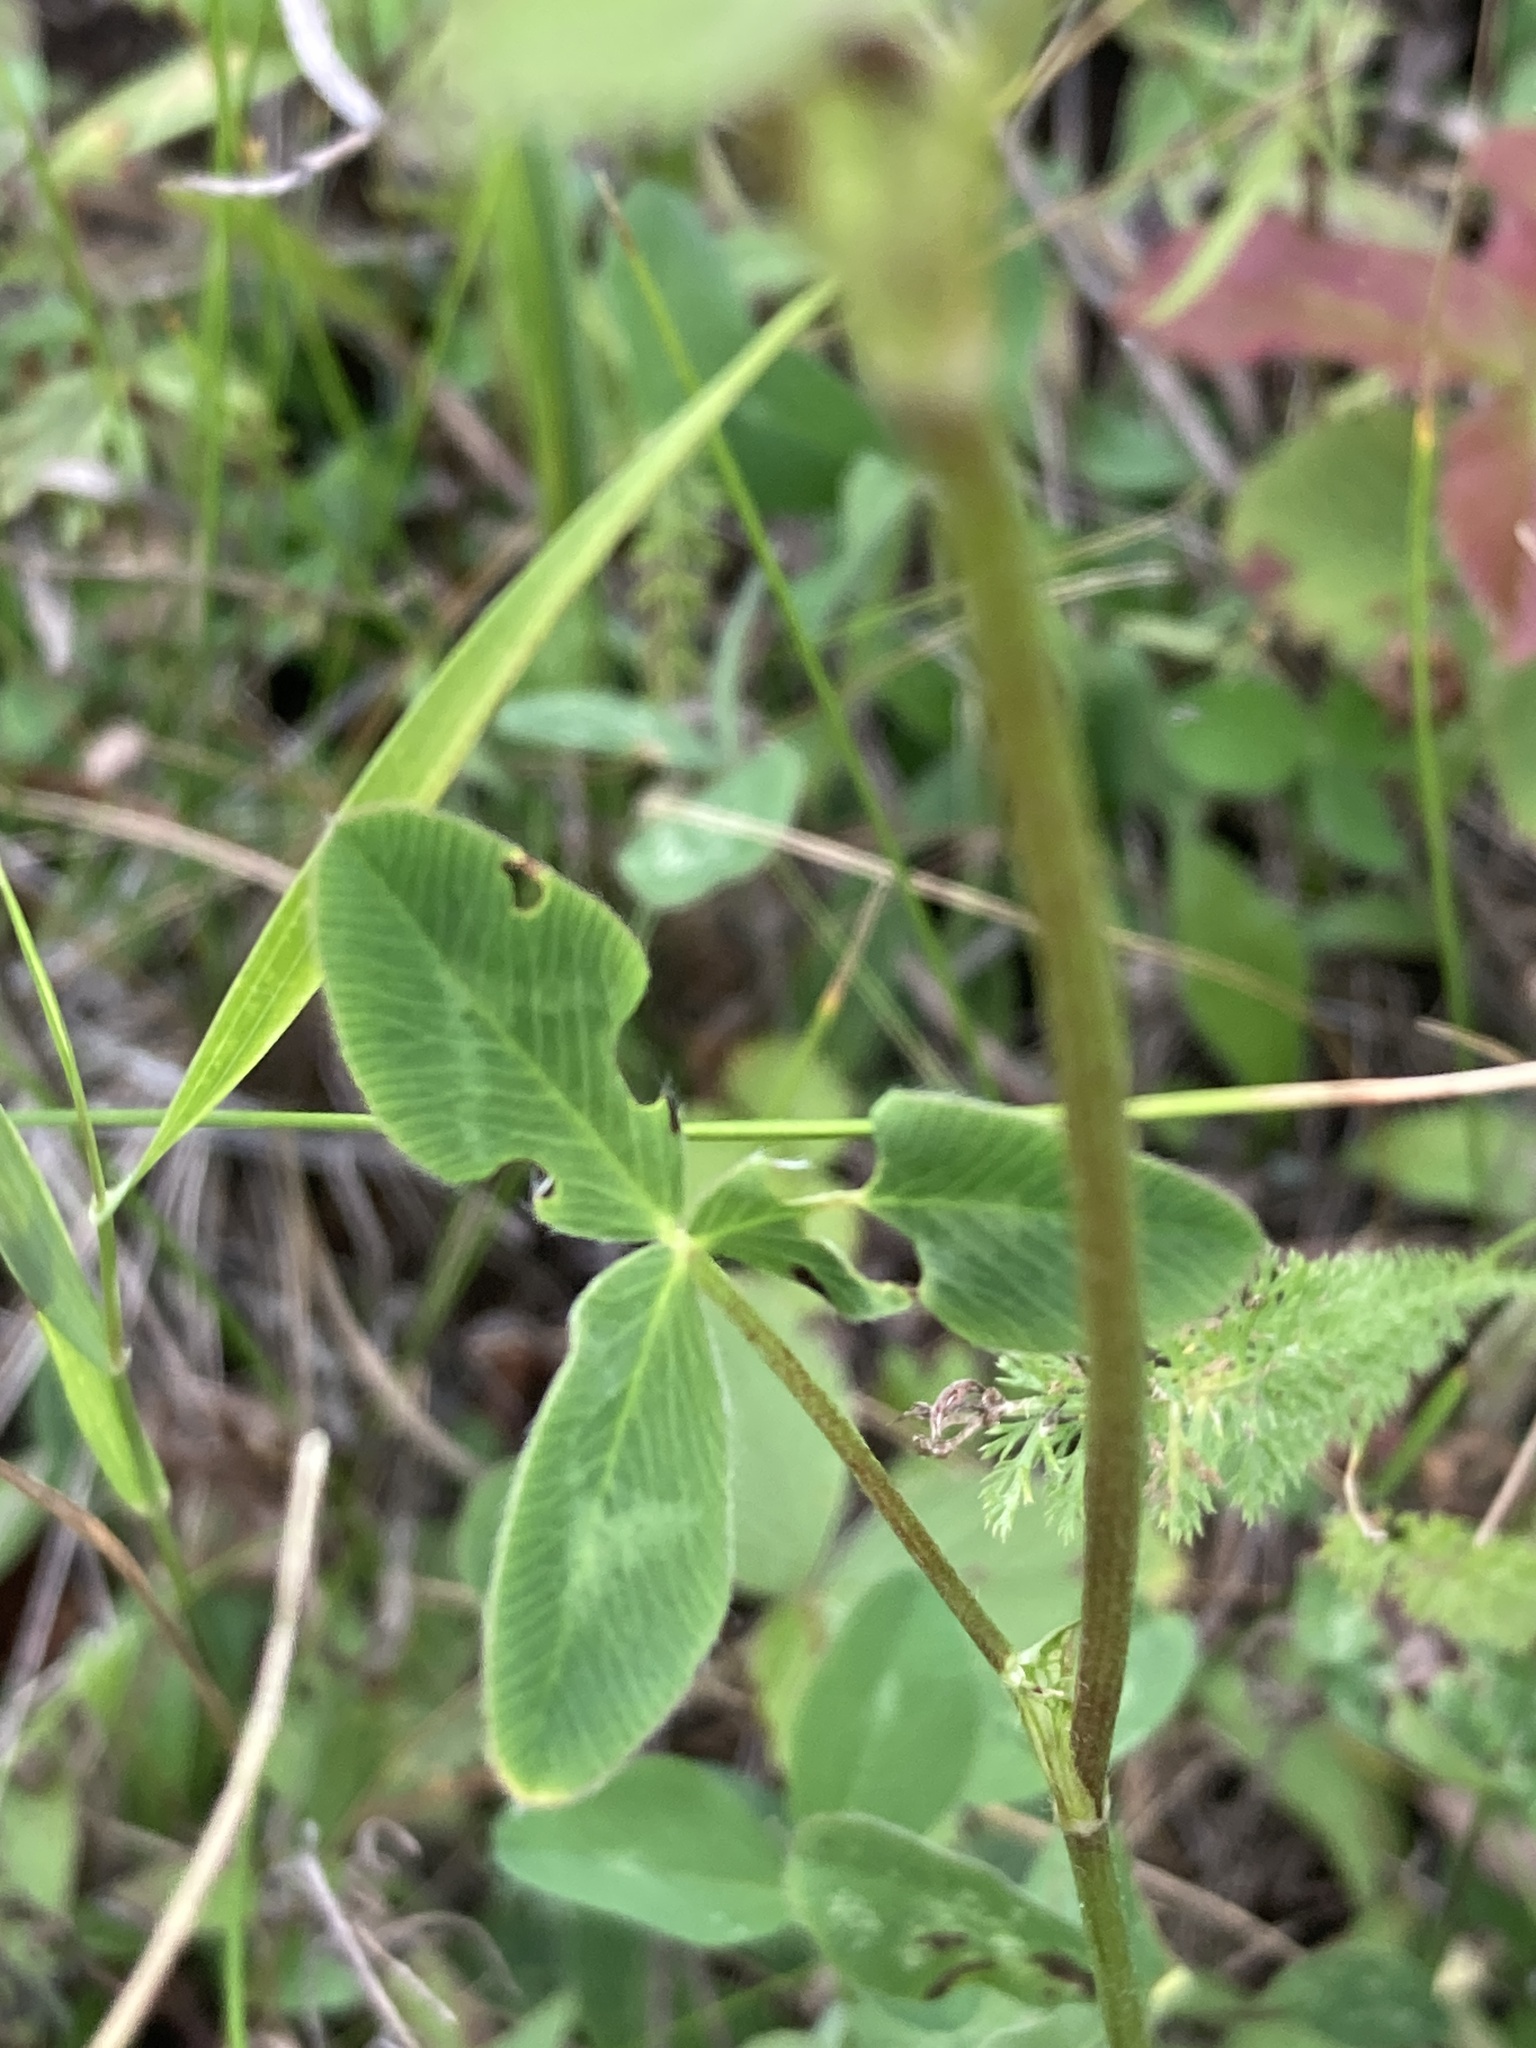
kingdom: Plantae
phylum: Tracheophyta
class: Magnoliopsida
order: Fabales
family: Fabaceae
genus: Trifolium
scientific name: Trifolium pratense
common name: Red clover
